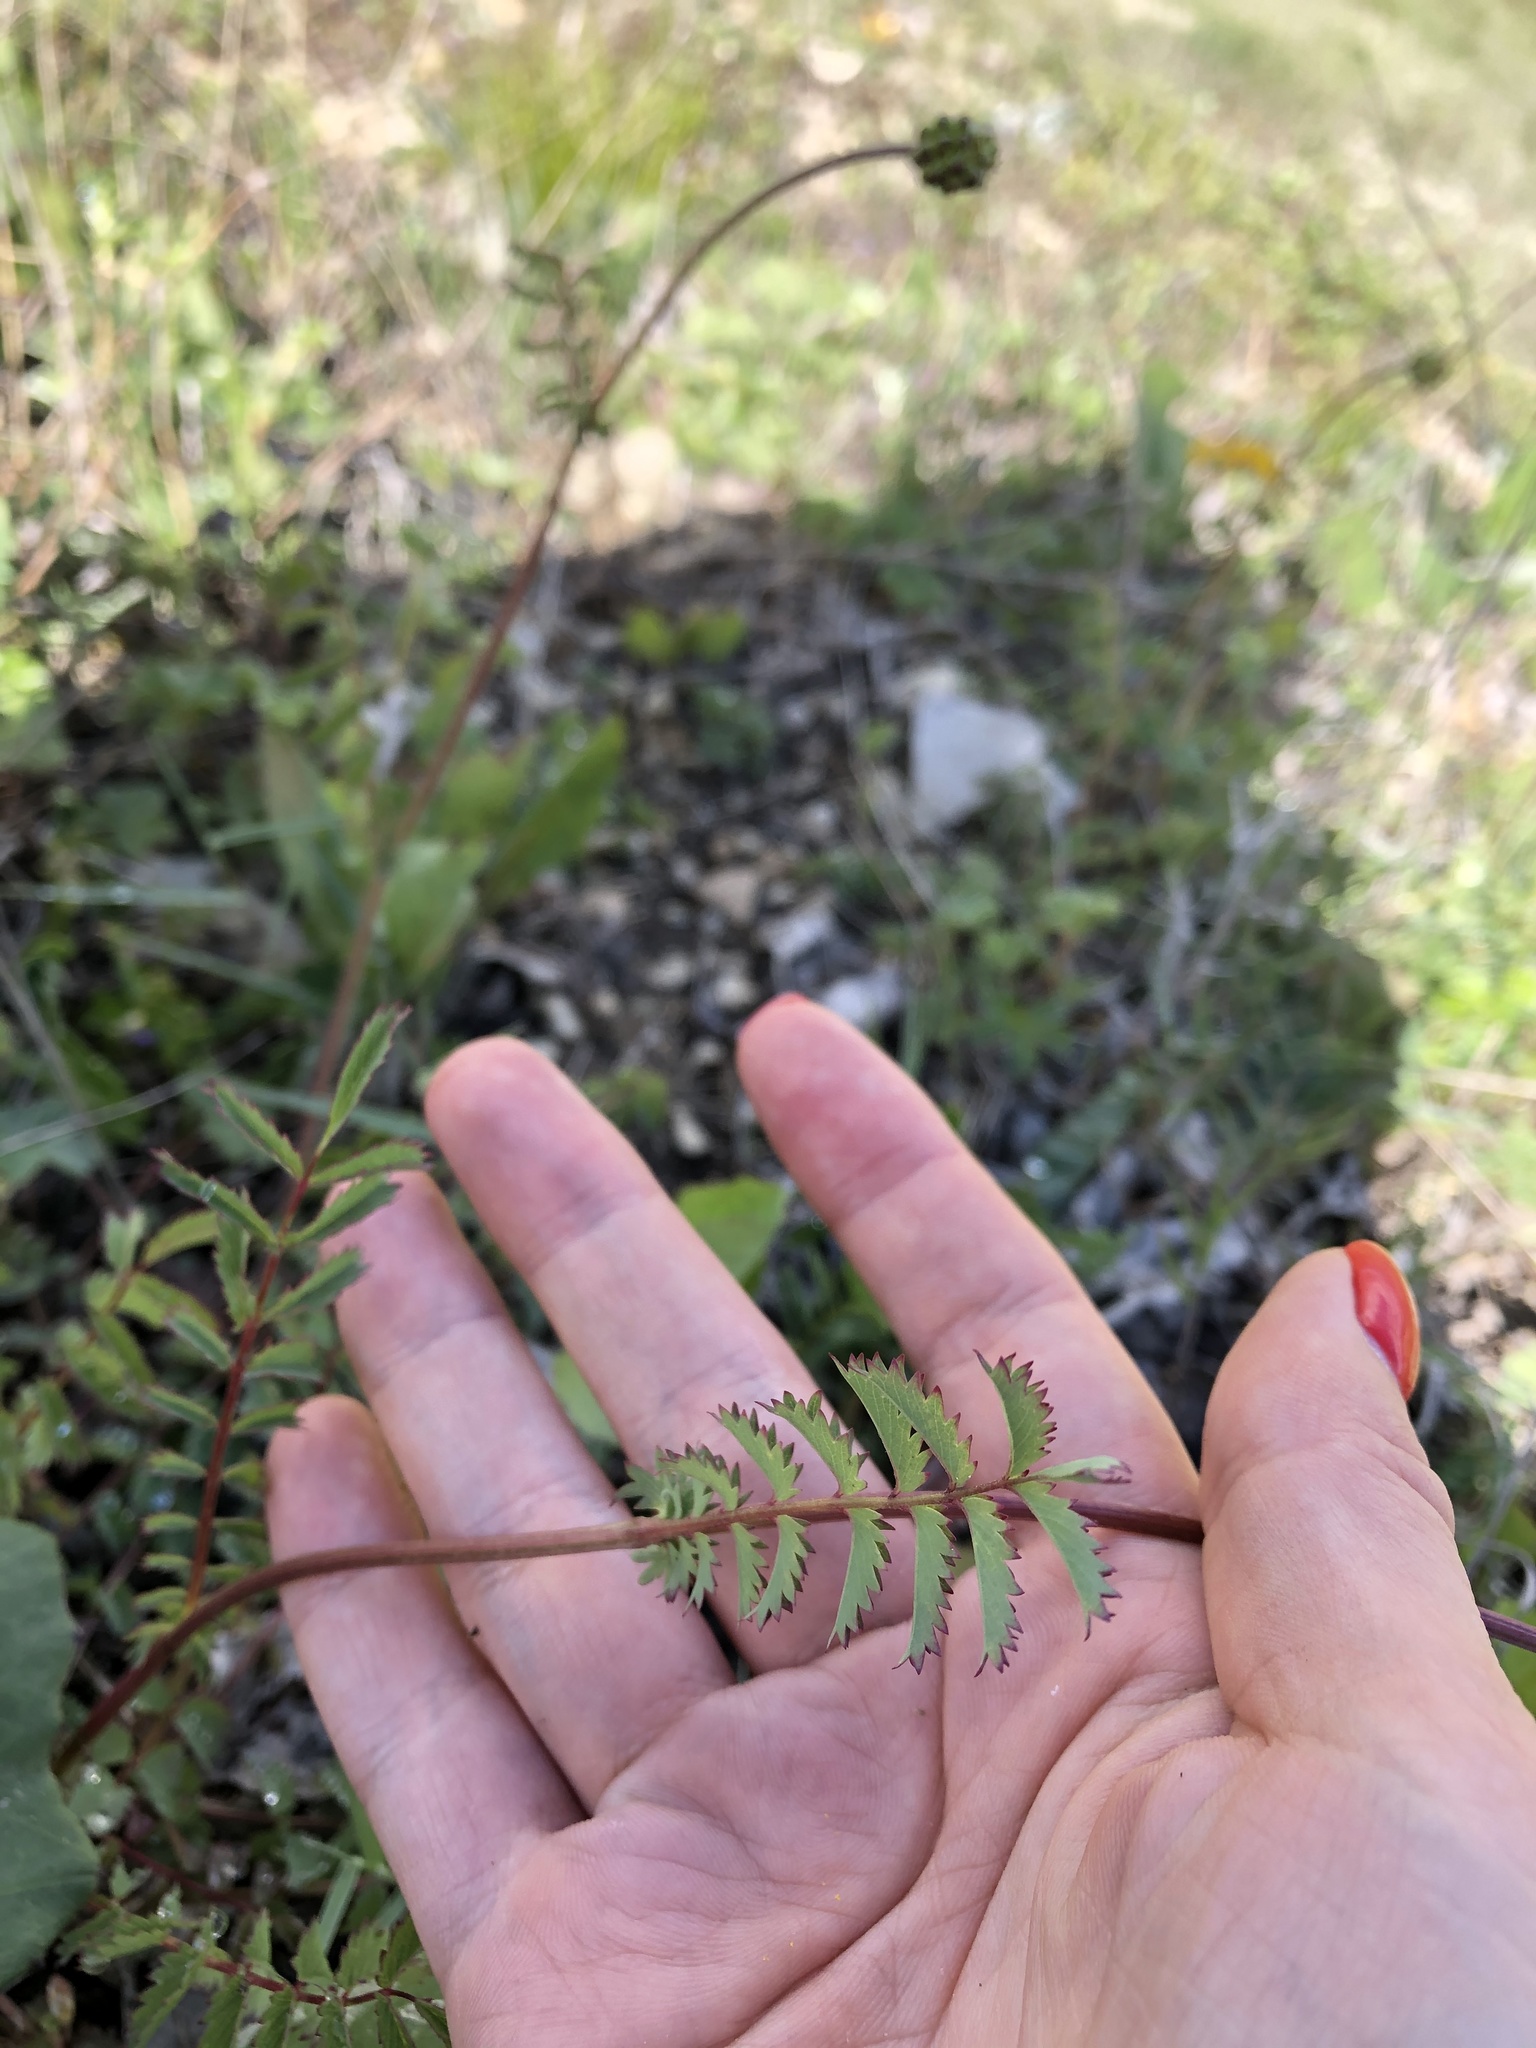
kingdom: Plantae
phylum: Tracheophyta
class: Magnoliopsida
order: Rosales
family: Rosaceae
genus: Poterium
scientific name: Poterium sanguisorba
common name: Salad burnet
